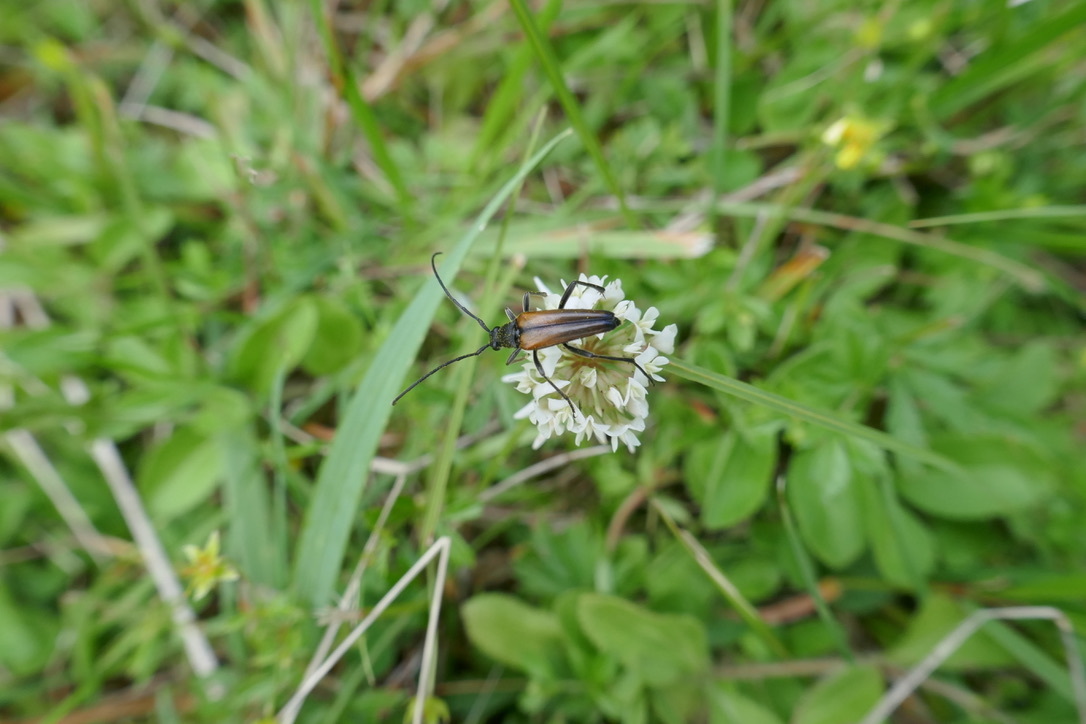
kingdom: Animalia
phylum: Arthropoda
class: Insecta
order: Coleoptera
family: Cerambycidae
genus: Stenurella
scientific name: Stenurella melanura
